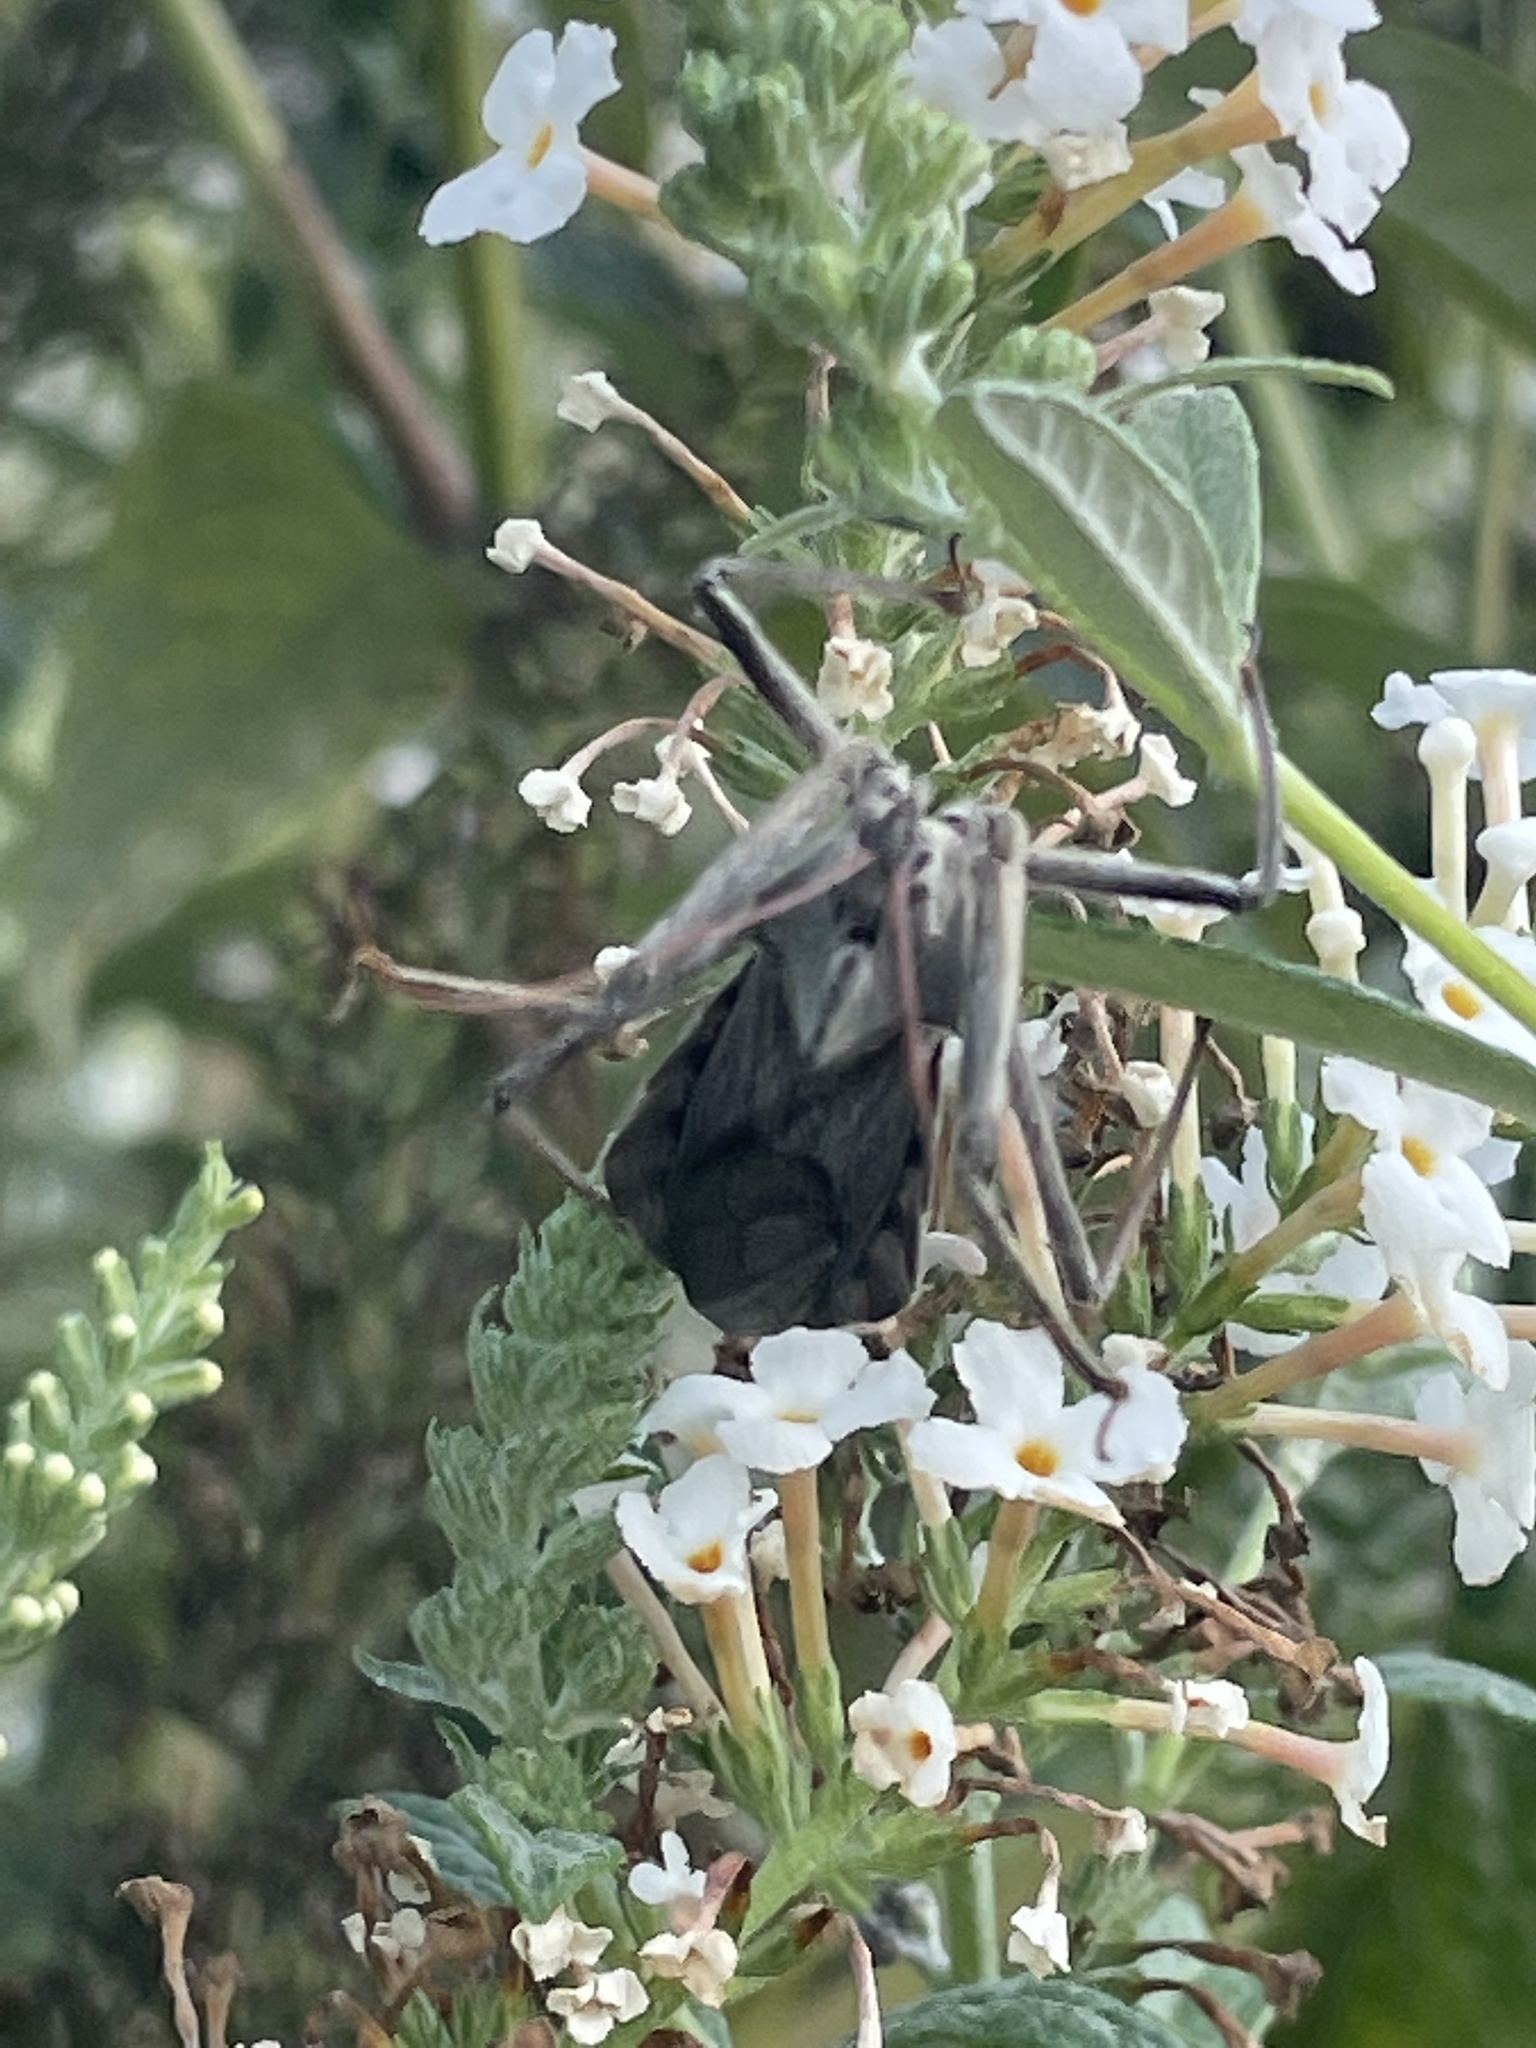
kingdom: Animalia
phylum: Arthropoda
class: Insecta
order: Hemiptera
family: Reduviidae
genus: Arilus
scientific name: Arilus cristatus
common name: North american wheel bug
